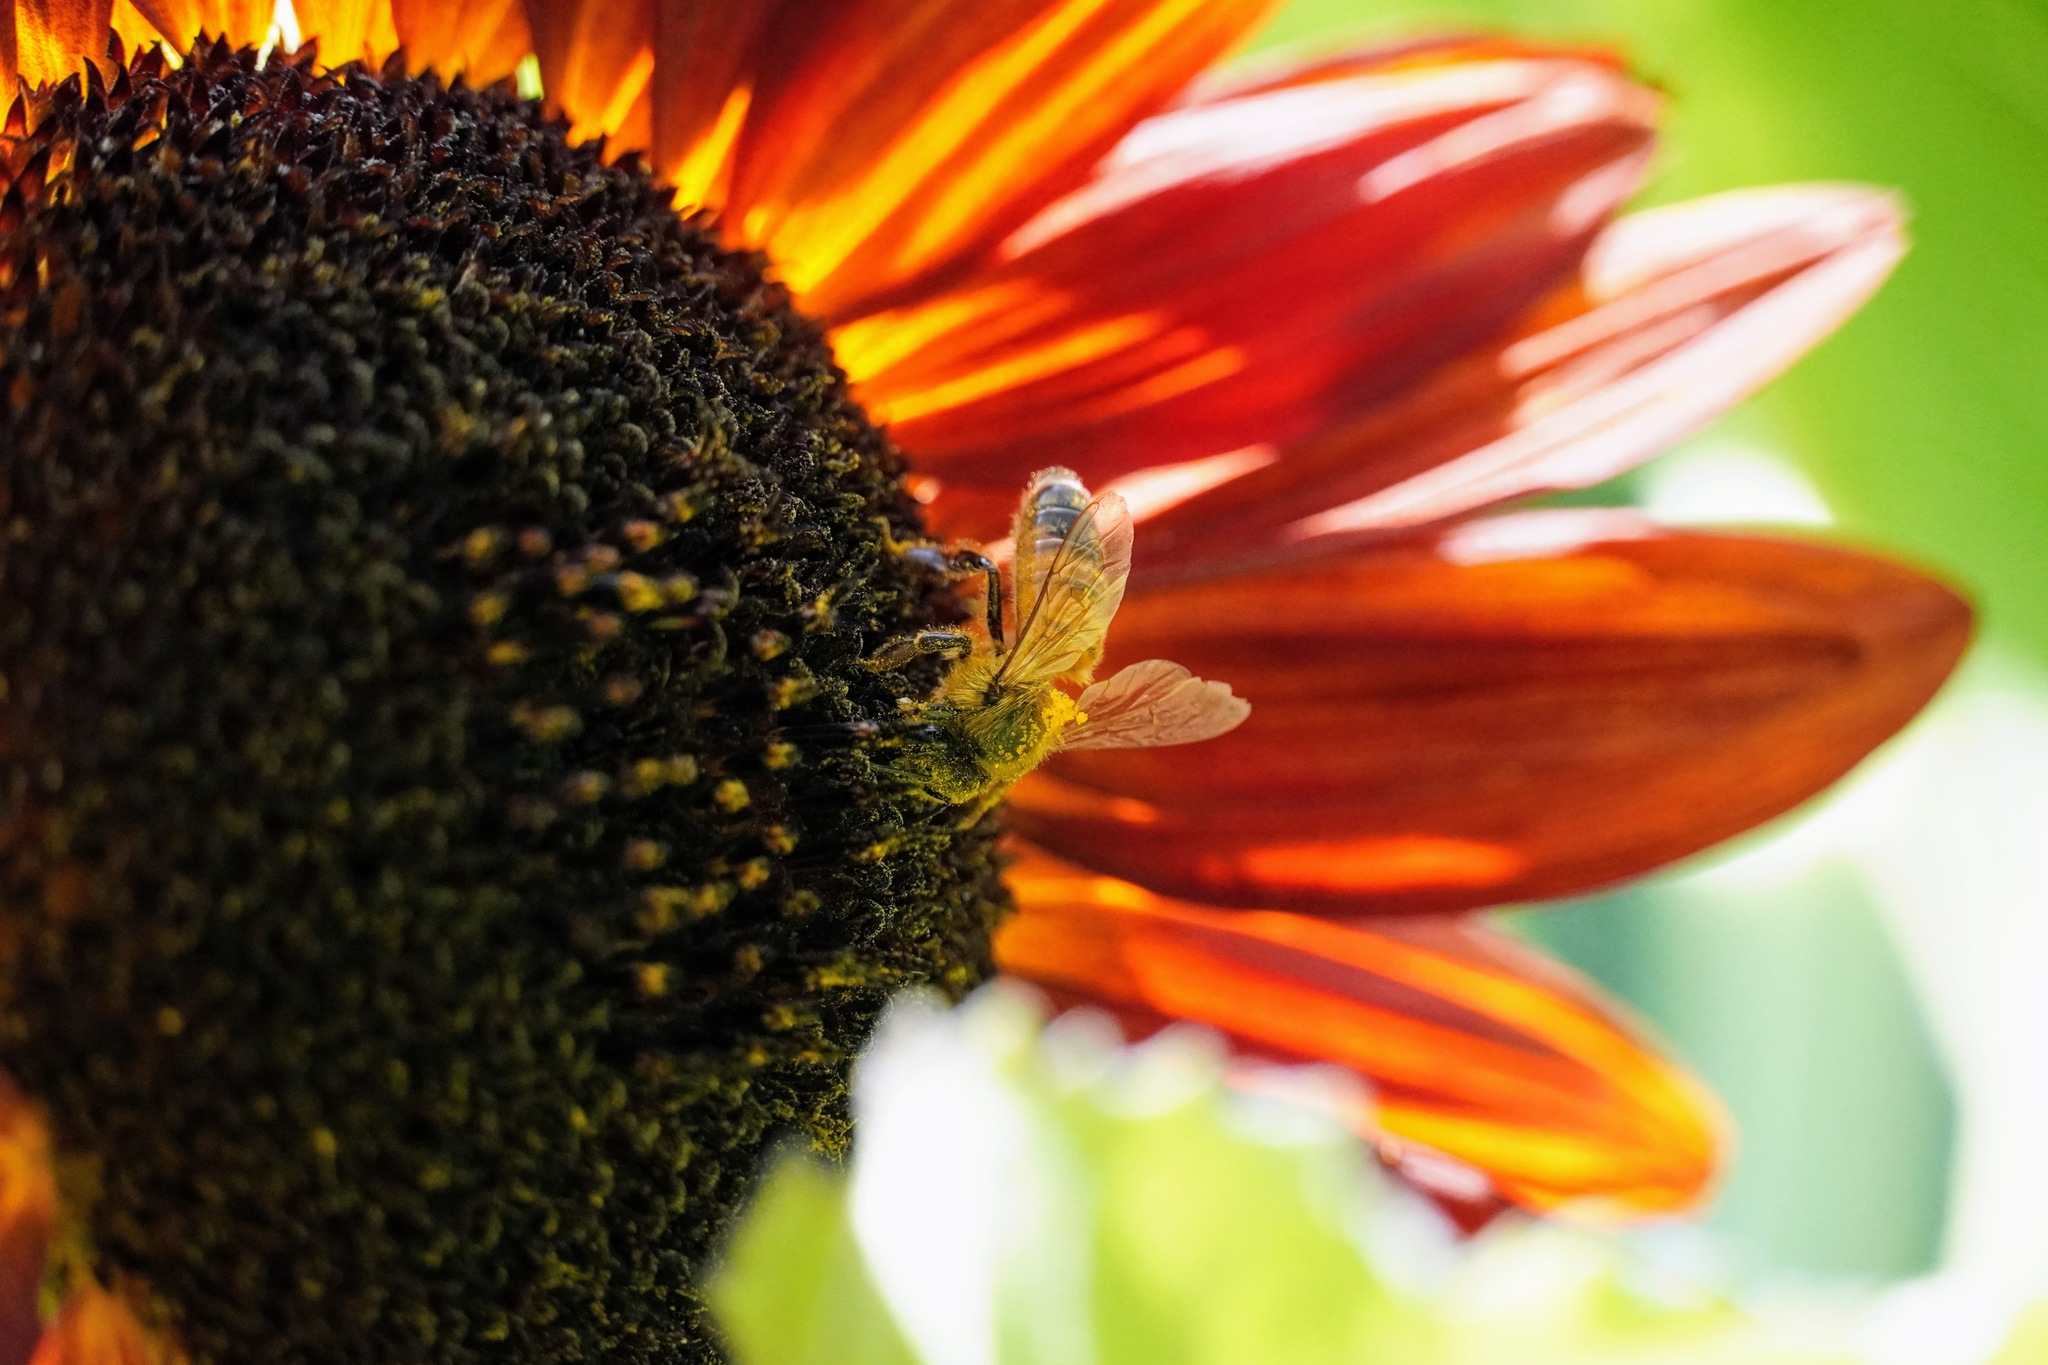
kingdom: Animalia
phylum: Arthropoda
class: Insecta
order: Hymenoptera
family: Apidae
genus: Apis
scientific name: Apis mellifera
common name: Honey bee
